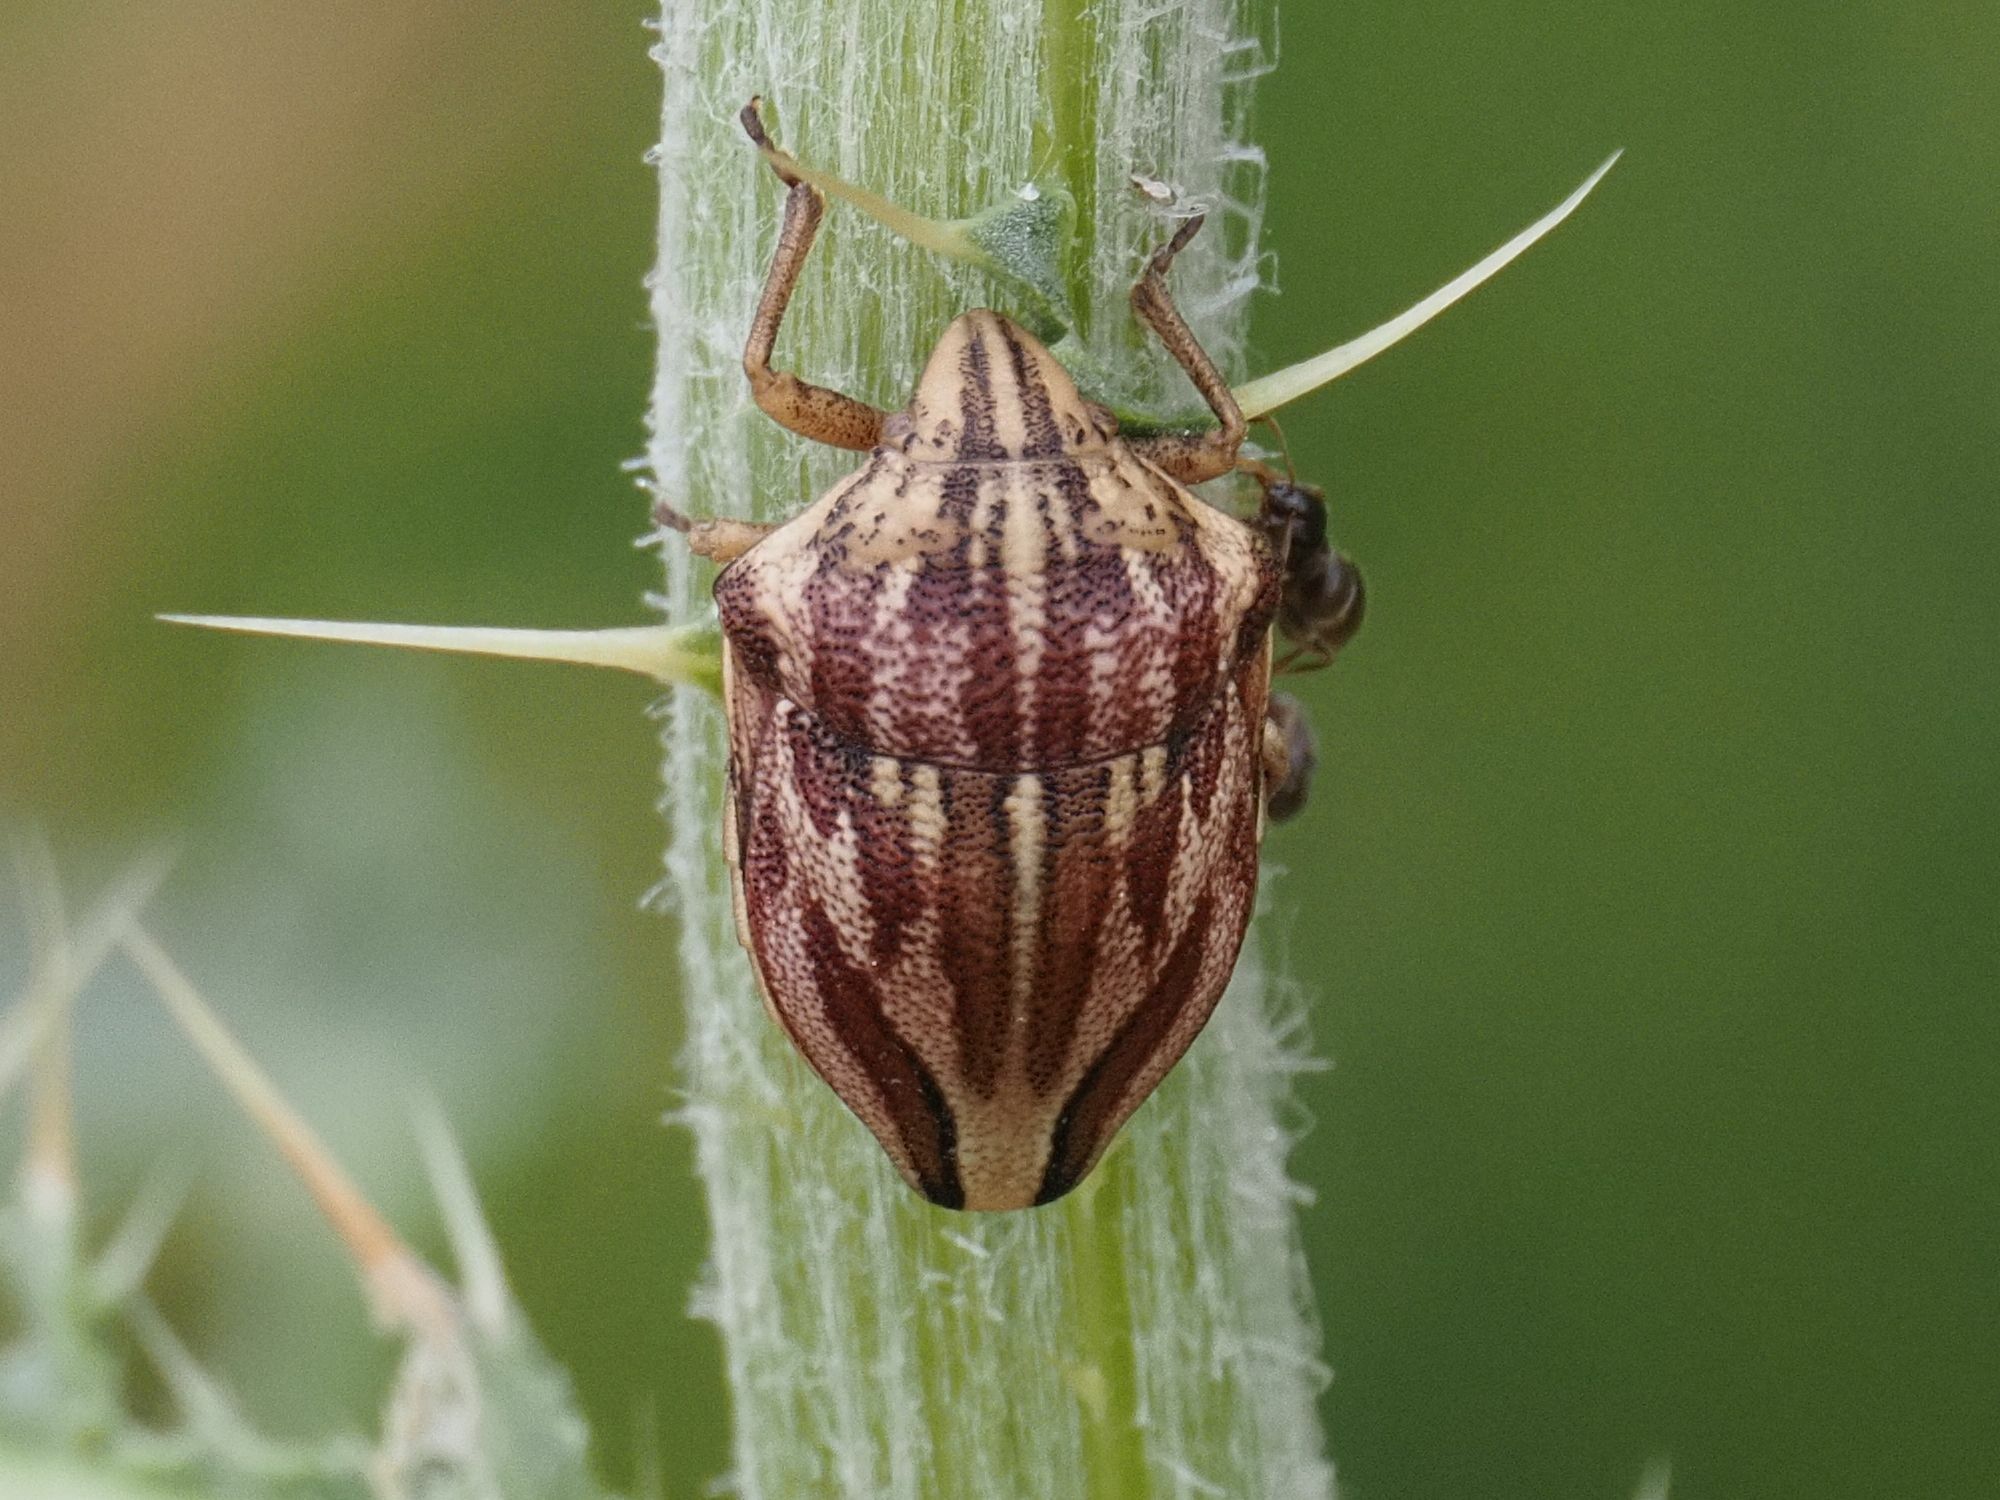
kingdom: Animalia
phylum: Arthropoda
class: Insecta
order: Hemiptera
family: Scutelleridae
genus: Odontotarsus
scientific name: Odontotarsus purpureolineatus
